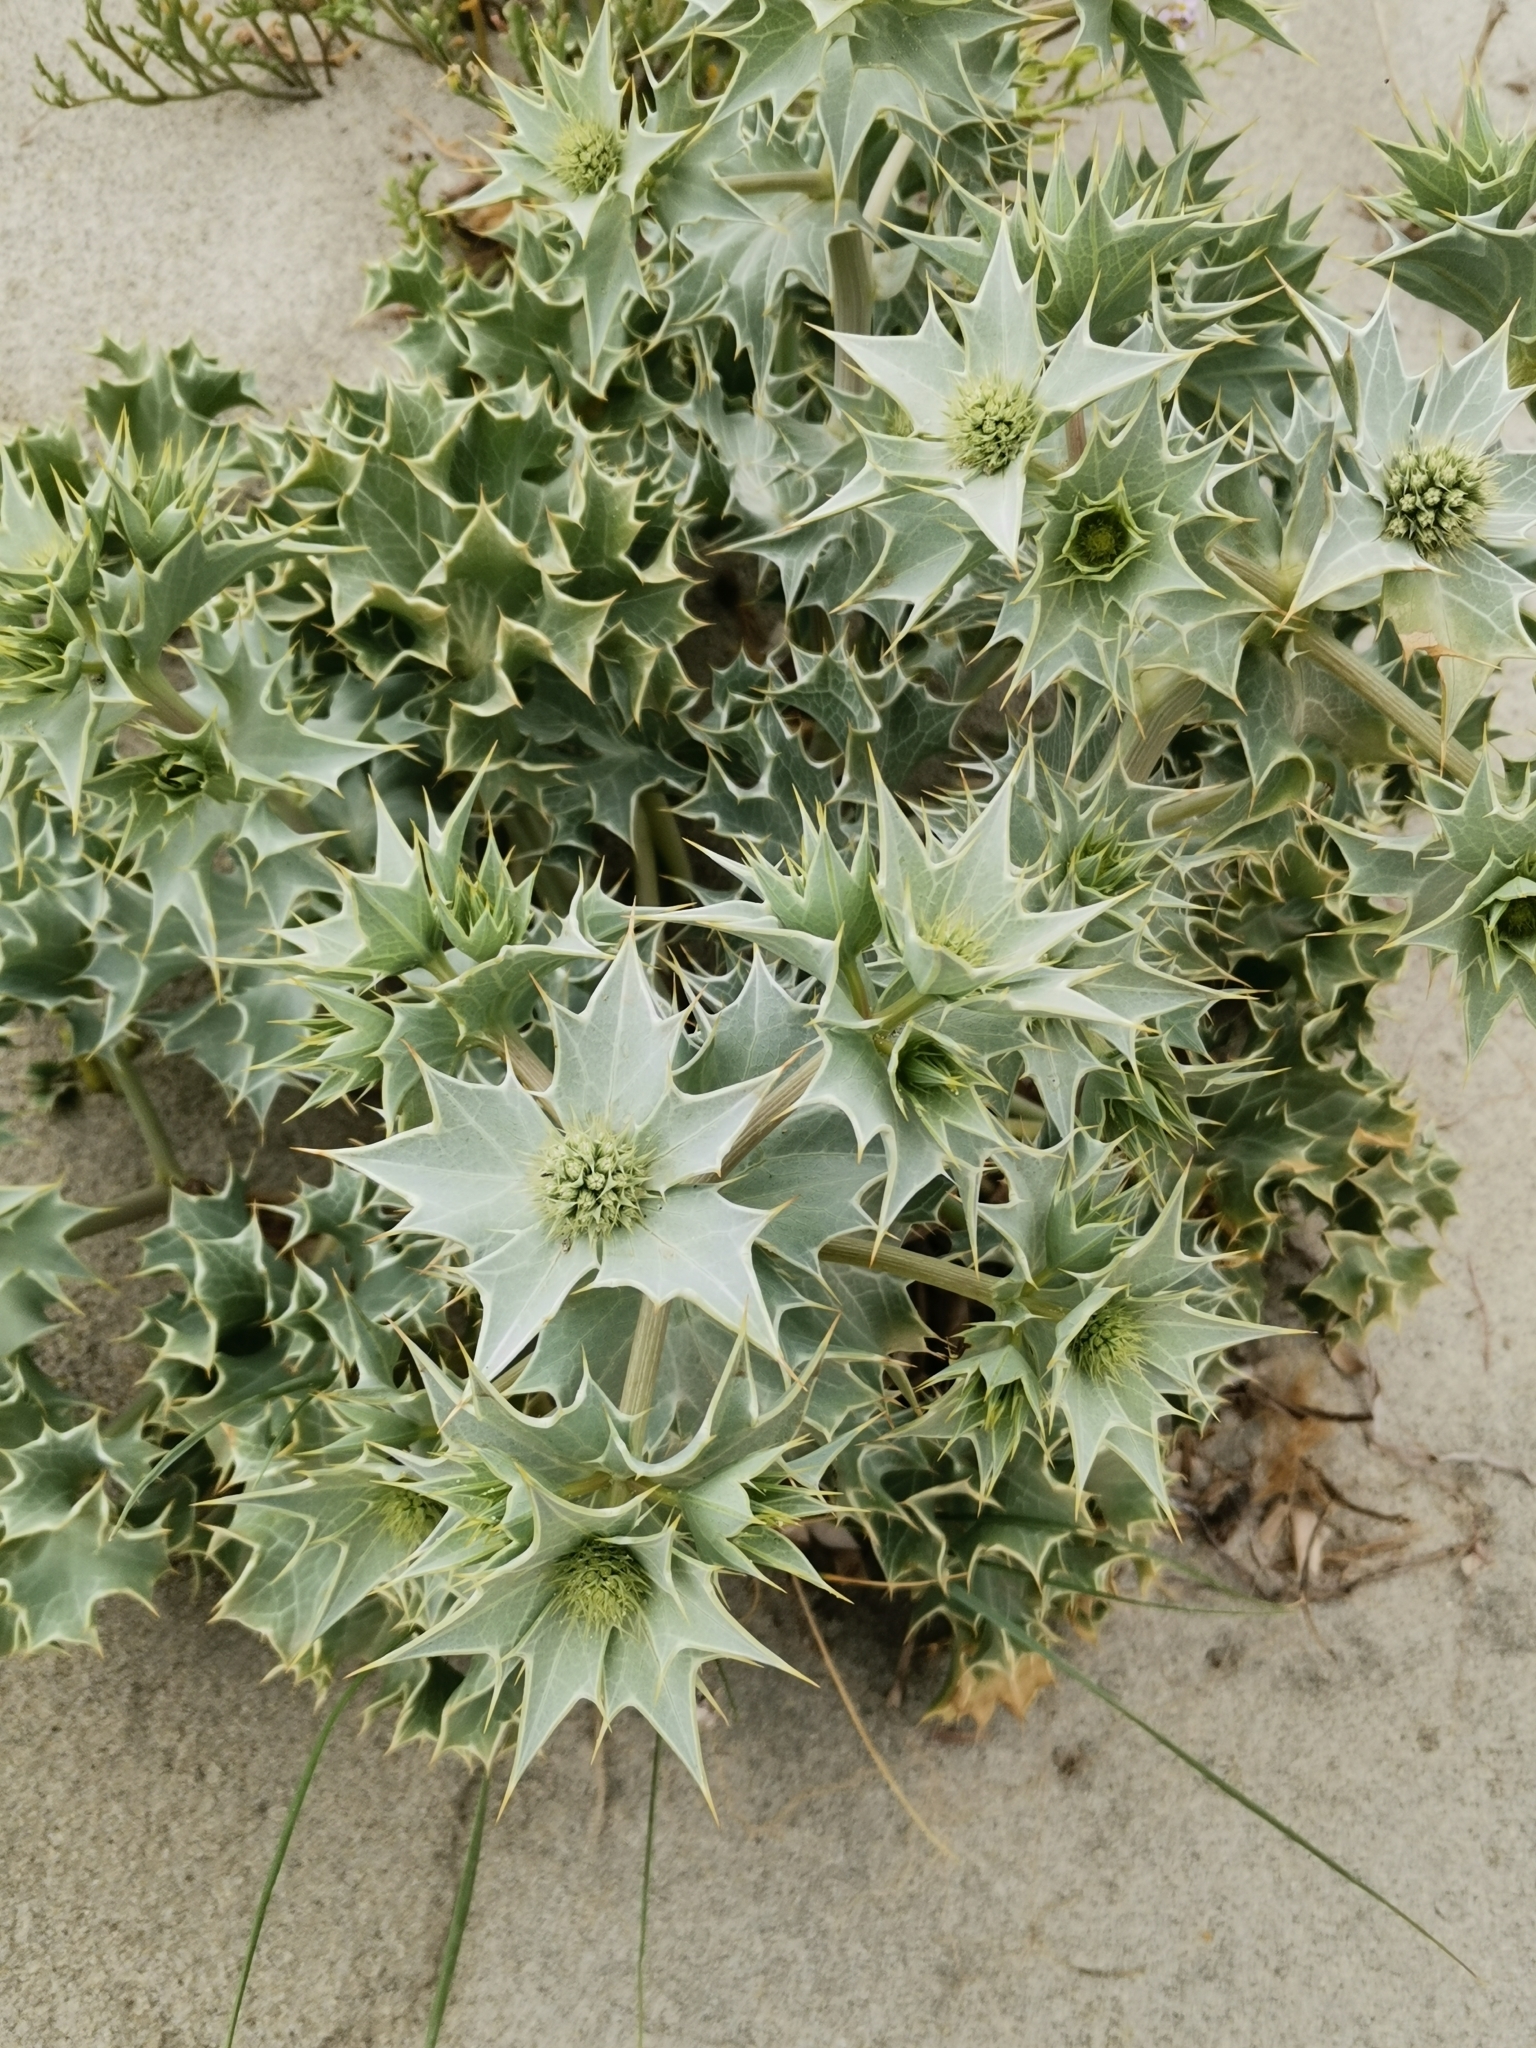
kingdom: Plantae
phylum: Tracheophyta
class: Magnoliopsida
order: Apiales
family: Apiaceae
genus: Eryngium
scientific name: Eryngium maritimum
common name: Sea-holly
